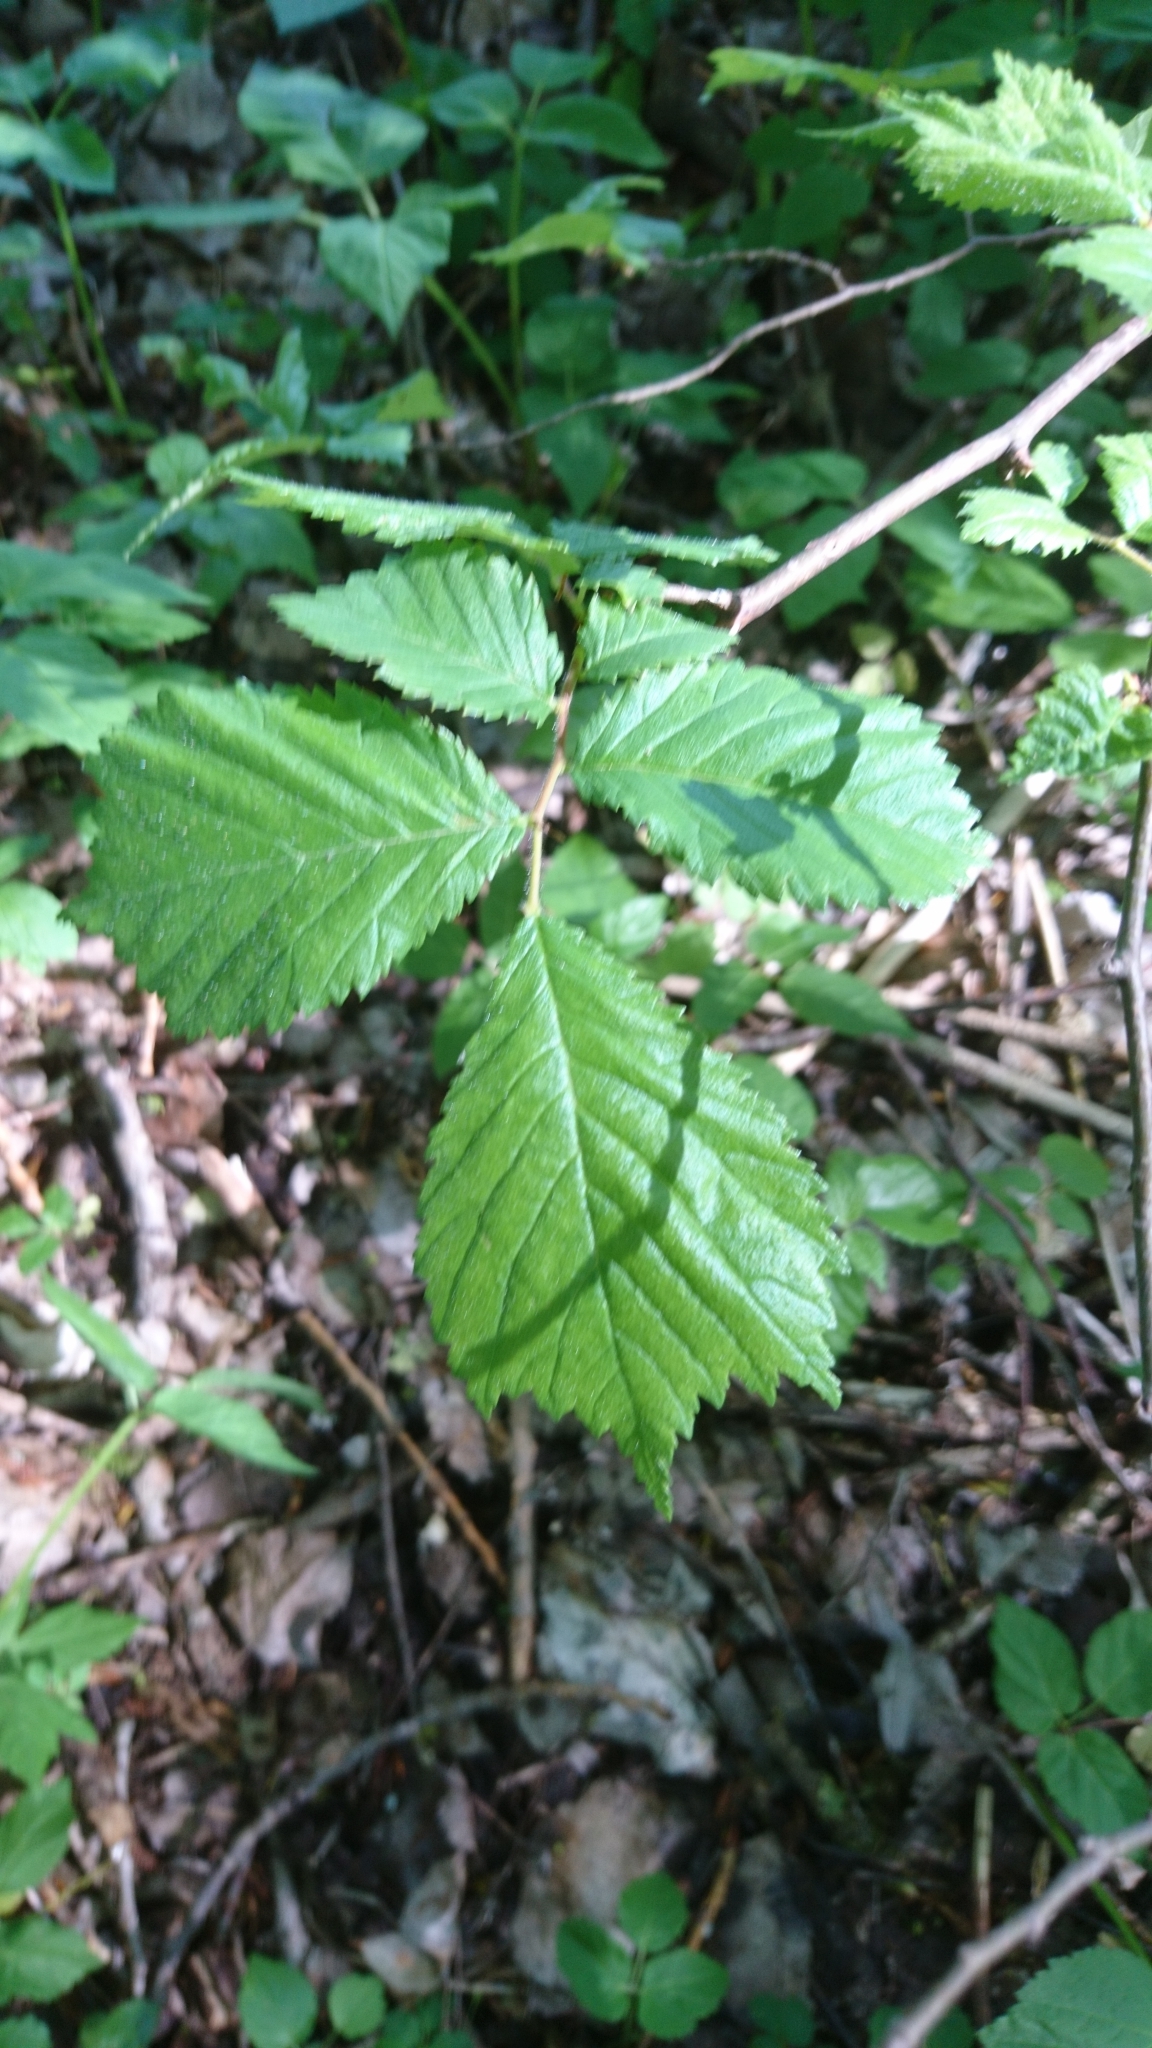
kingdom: Plantae
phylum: Tracheophyta
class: Magnoliopsida
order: Rosales
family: Ulmaceae
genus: Ulmus
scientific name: Ulmus glabra
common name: Wych elm
